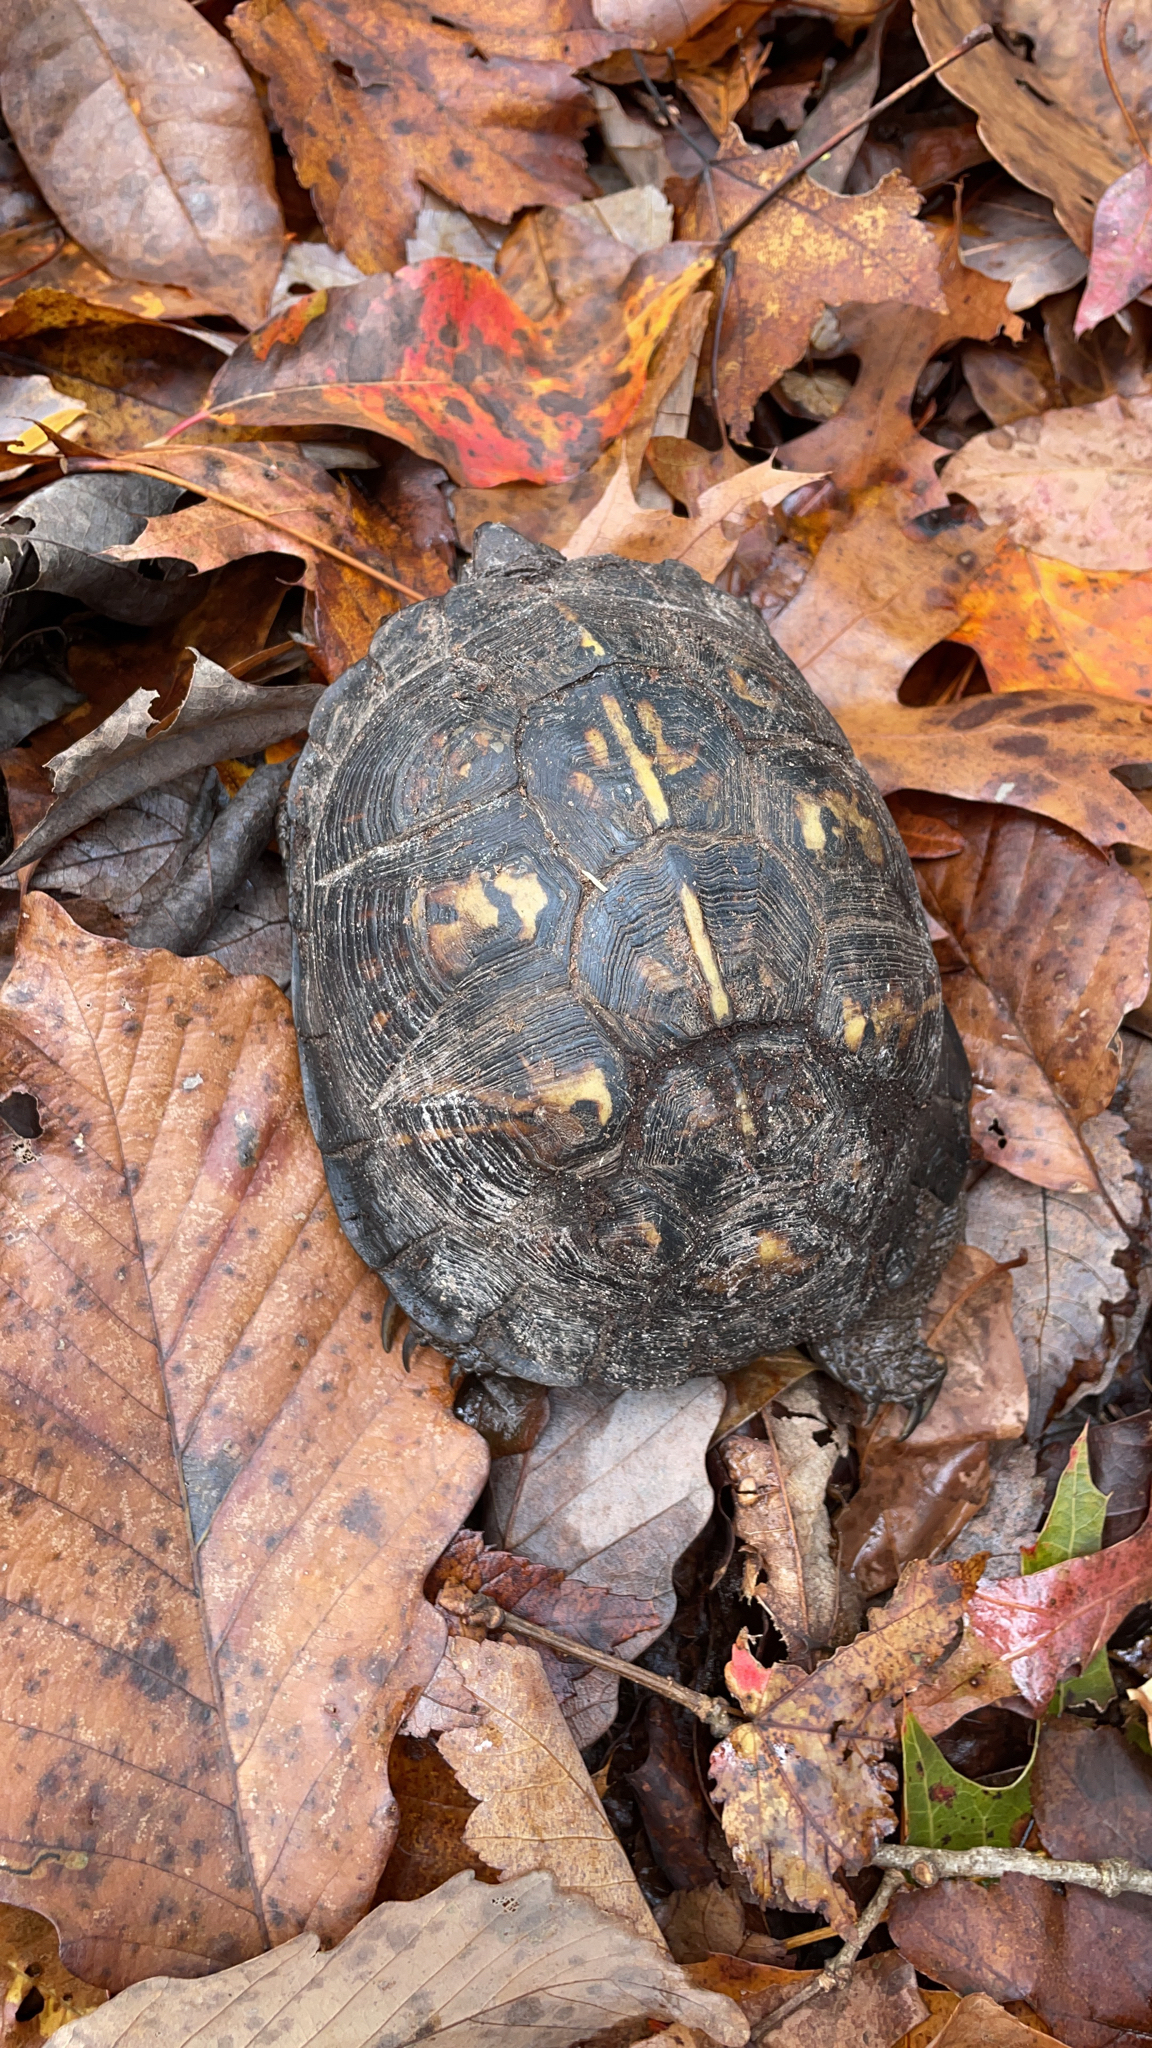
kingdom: Animalia
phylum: Chordata
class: Testudines
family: Emydidae
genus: Terrapene
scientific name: Terrapene carolina
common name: Common box turtle
